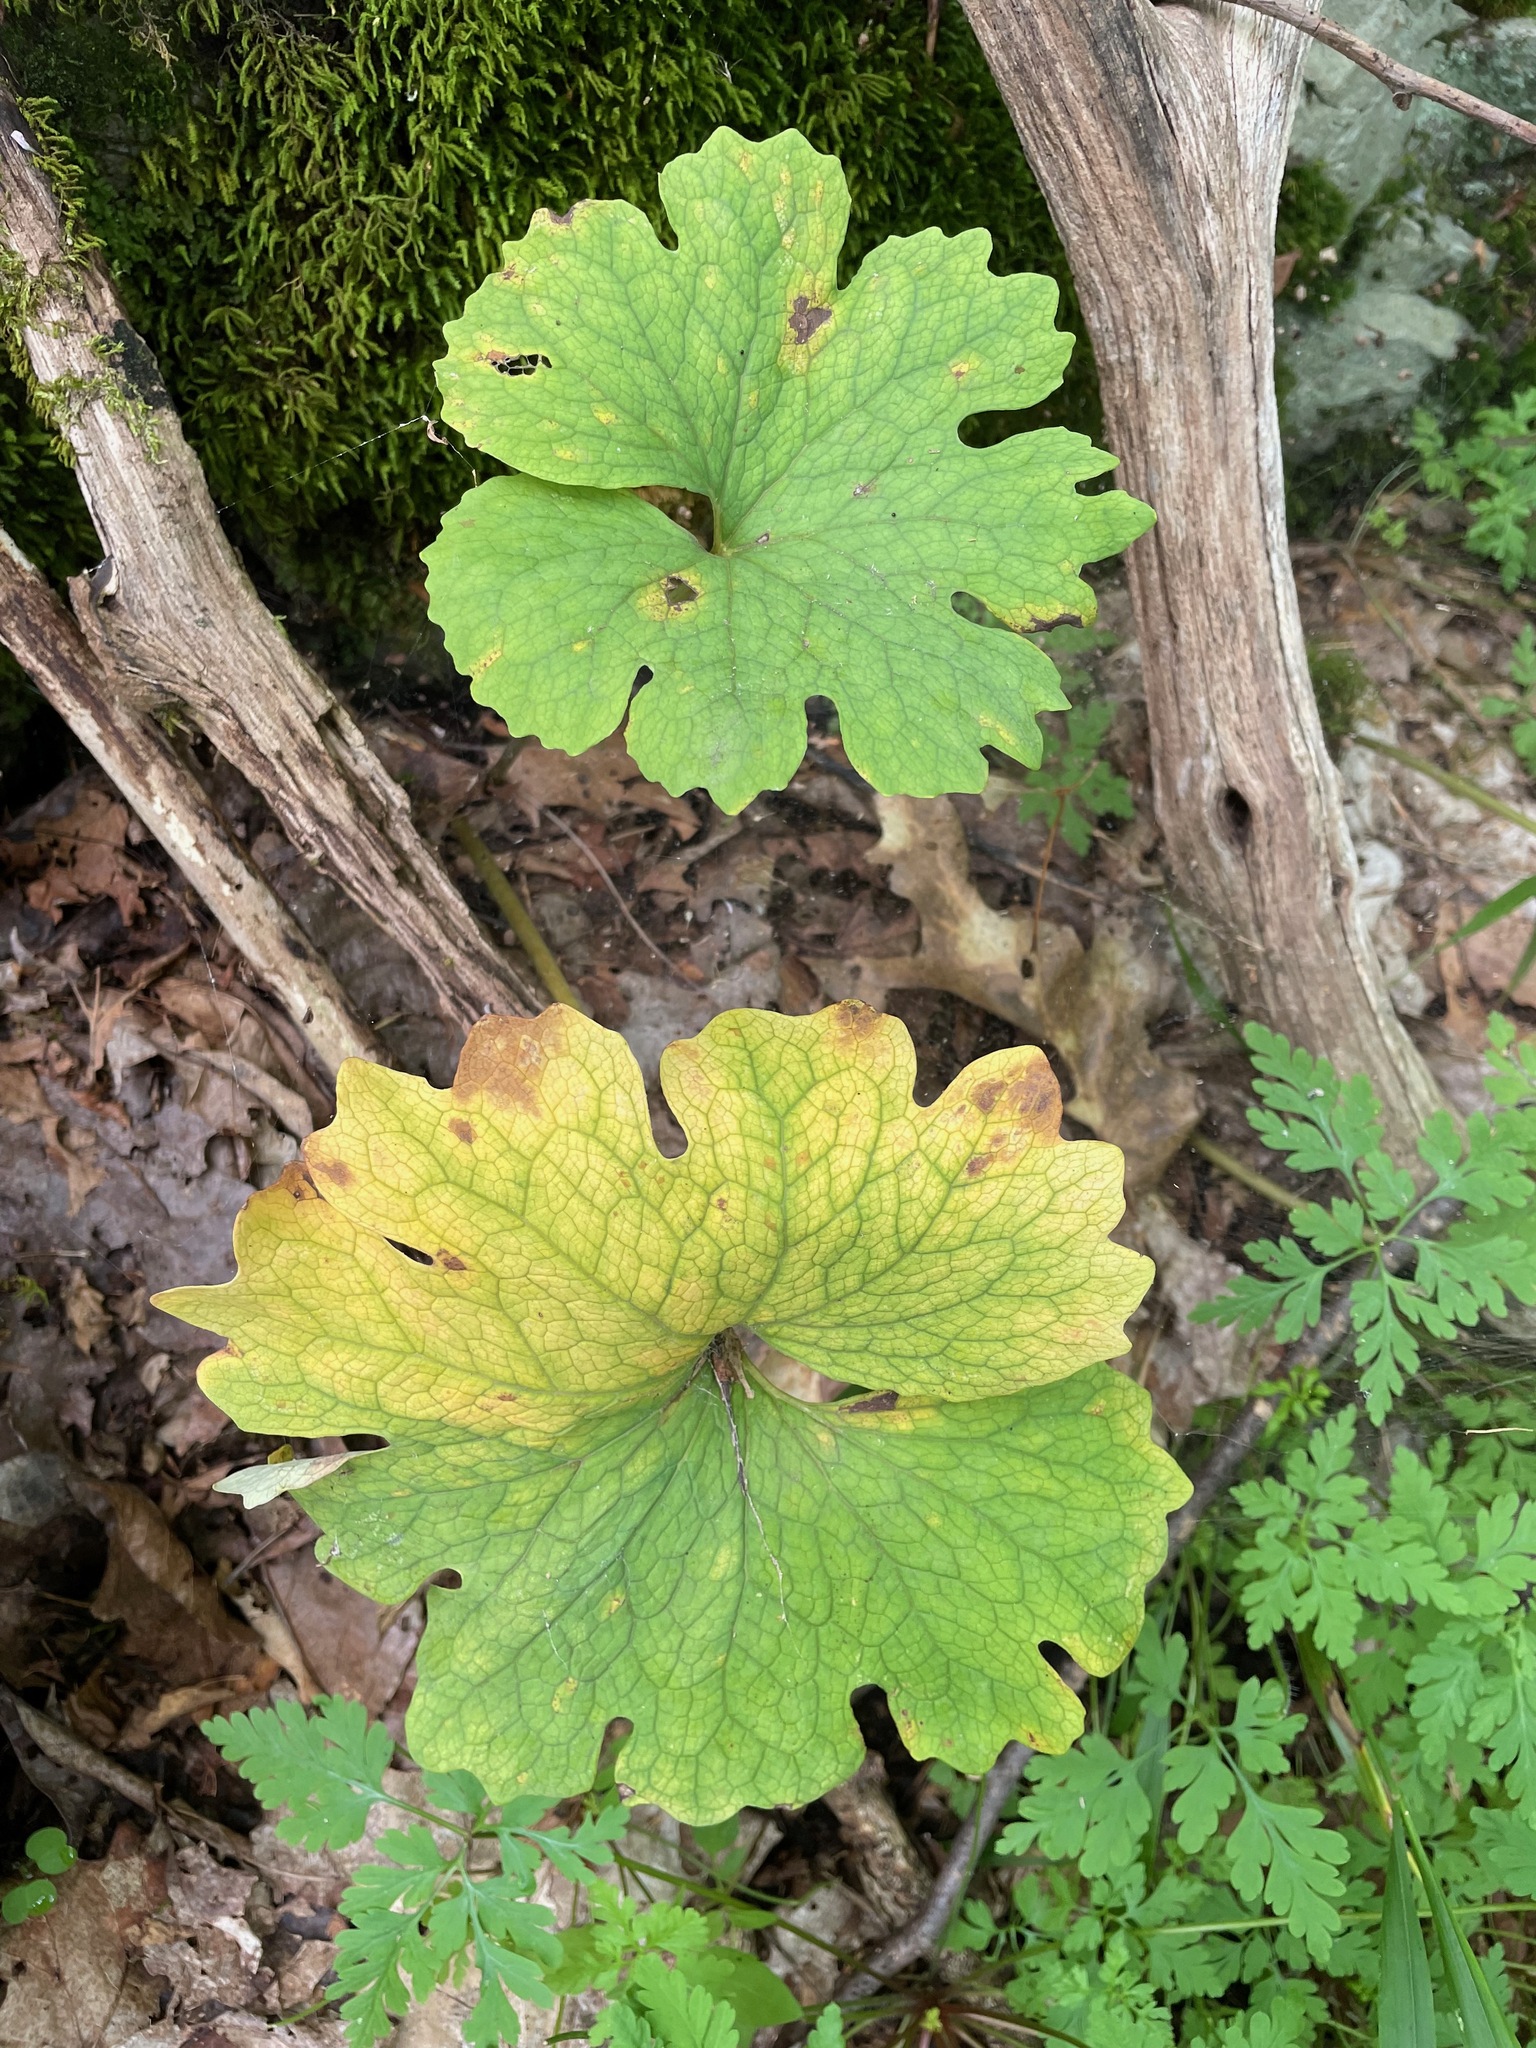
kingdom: Plantae
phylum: Tracheophyta
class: Magnoliopsida
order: Ranunculales
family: Papaveraceae
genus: Sanguinaria
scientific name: Sanguinaria canadensis
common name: Bloodroot
